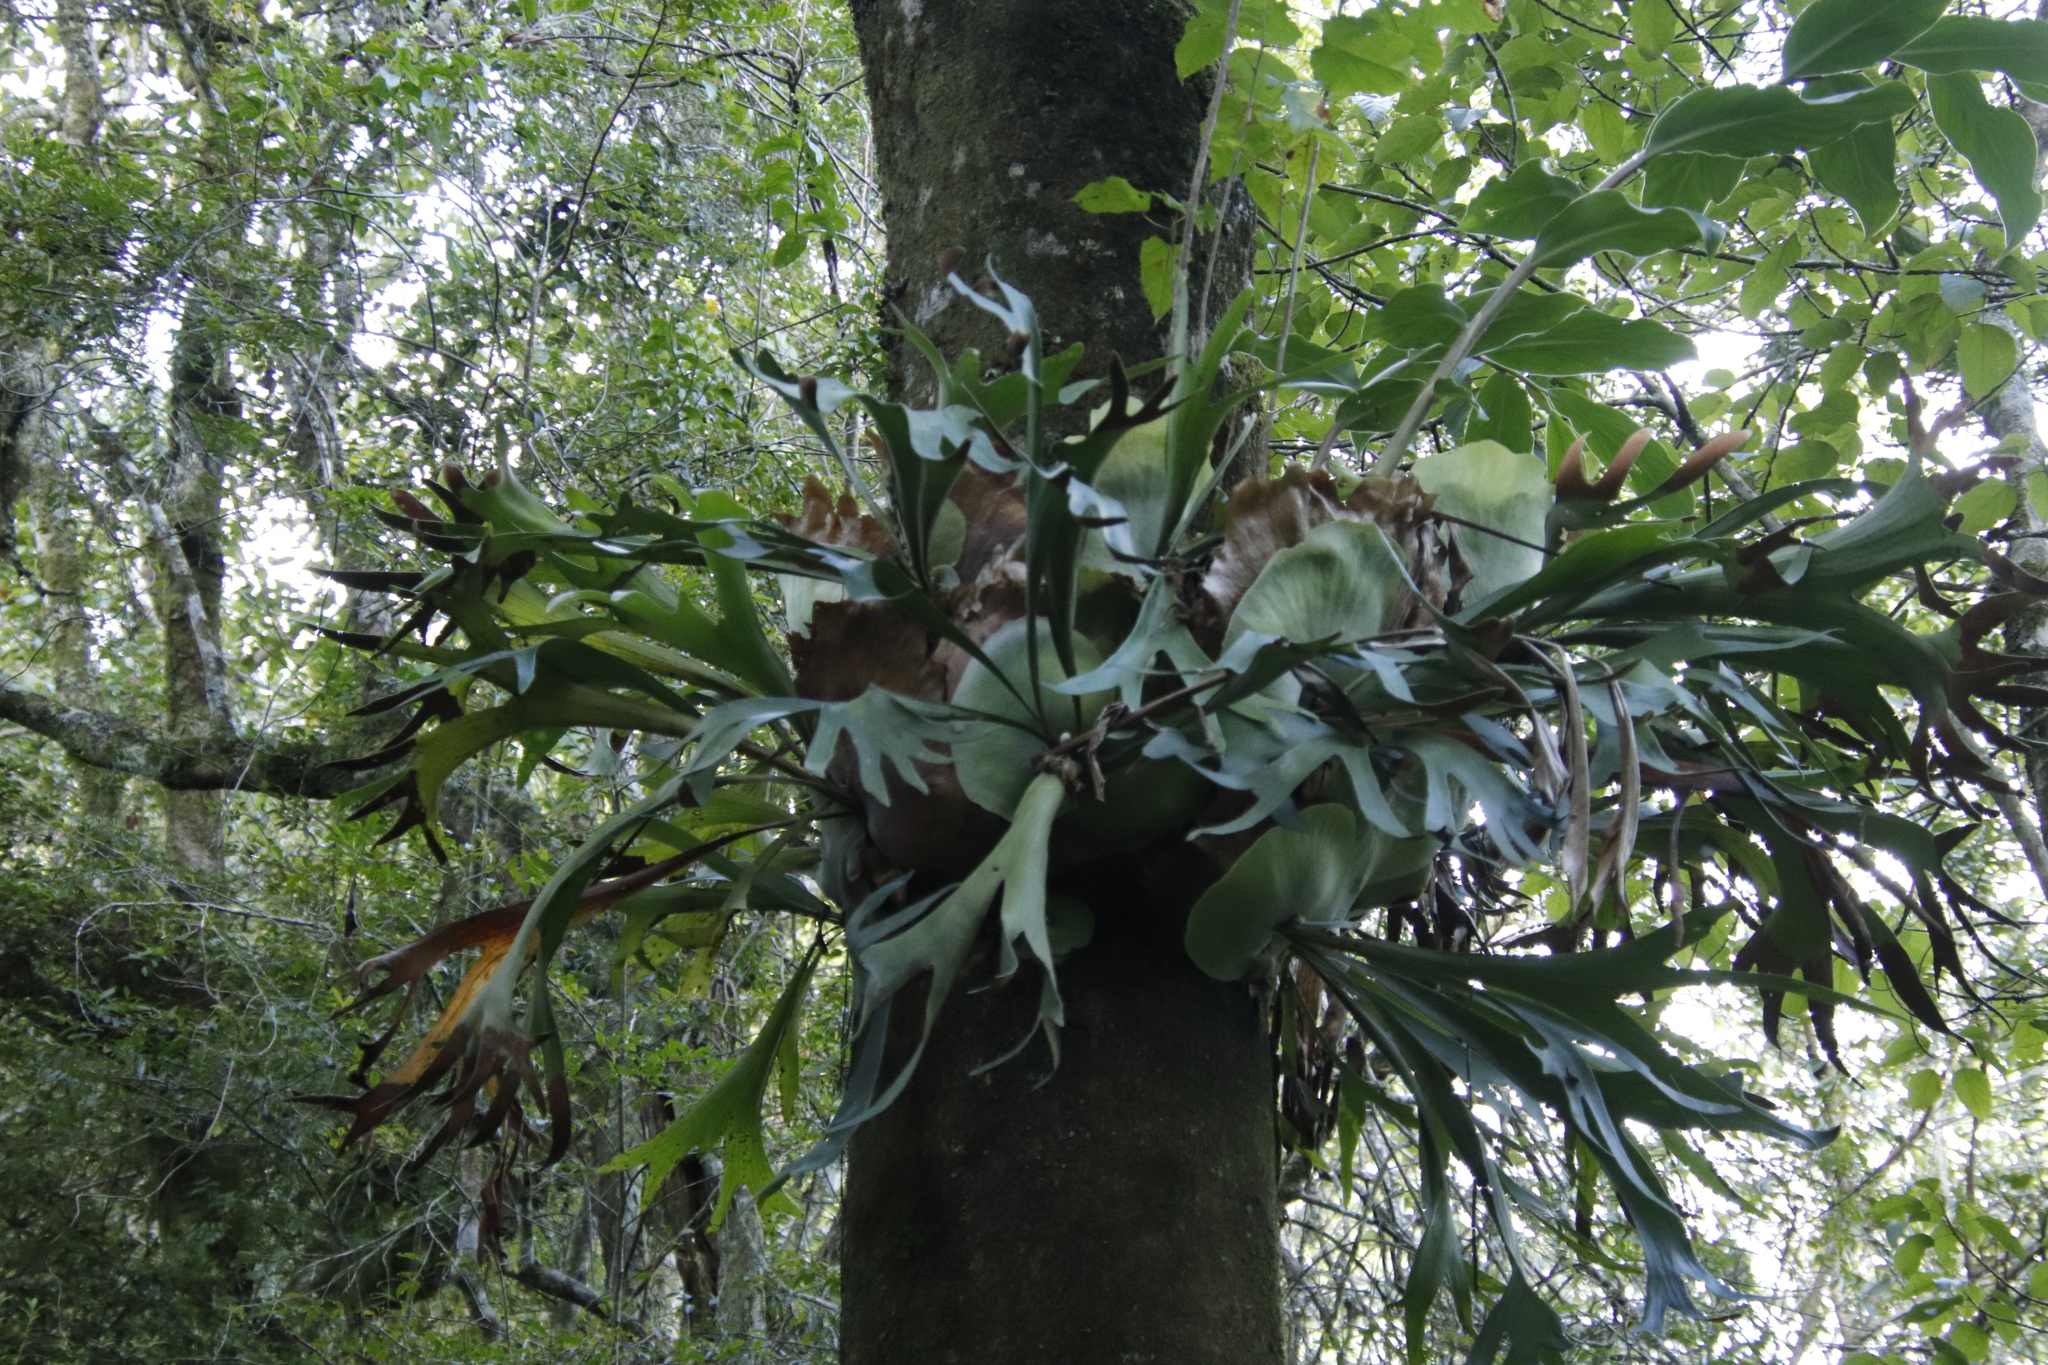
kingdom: Plantae
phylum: Tracheophyta
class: Polypodiopsida
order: Polypodiales
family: Polypodiaceae
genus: Platycerium
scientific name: Platycerium bifurcatum
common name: Elkhorn fern
